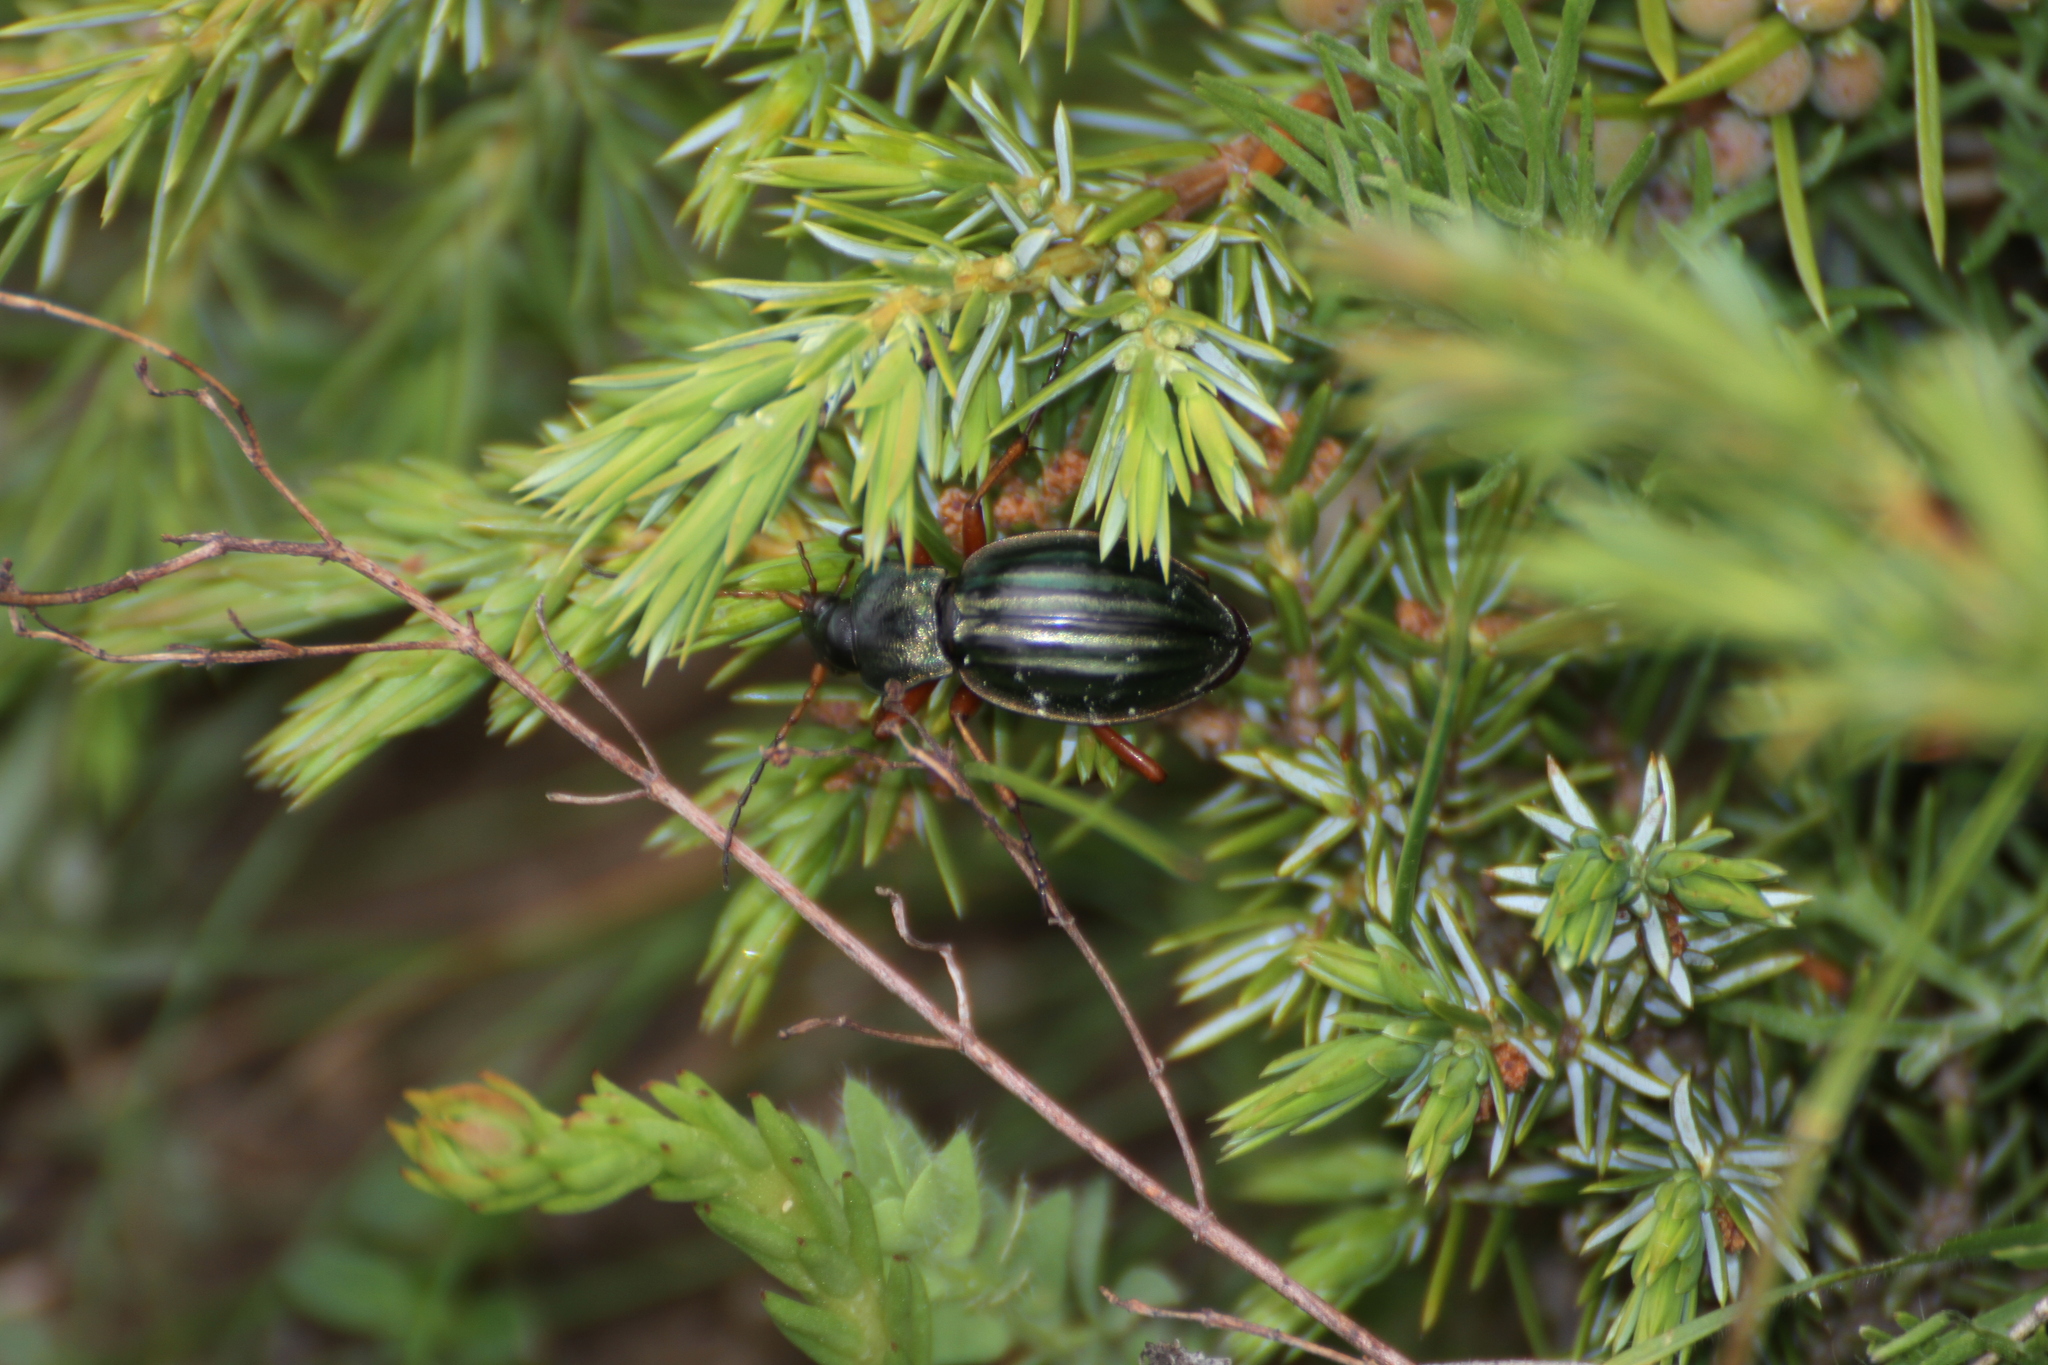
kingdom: Animalia
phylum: Arthropoda
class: Insecta
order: Coleoptera
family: Carabidae
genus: Carabus
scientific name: Carabus auratus
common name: Golden ground beetle
